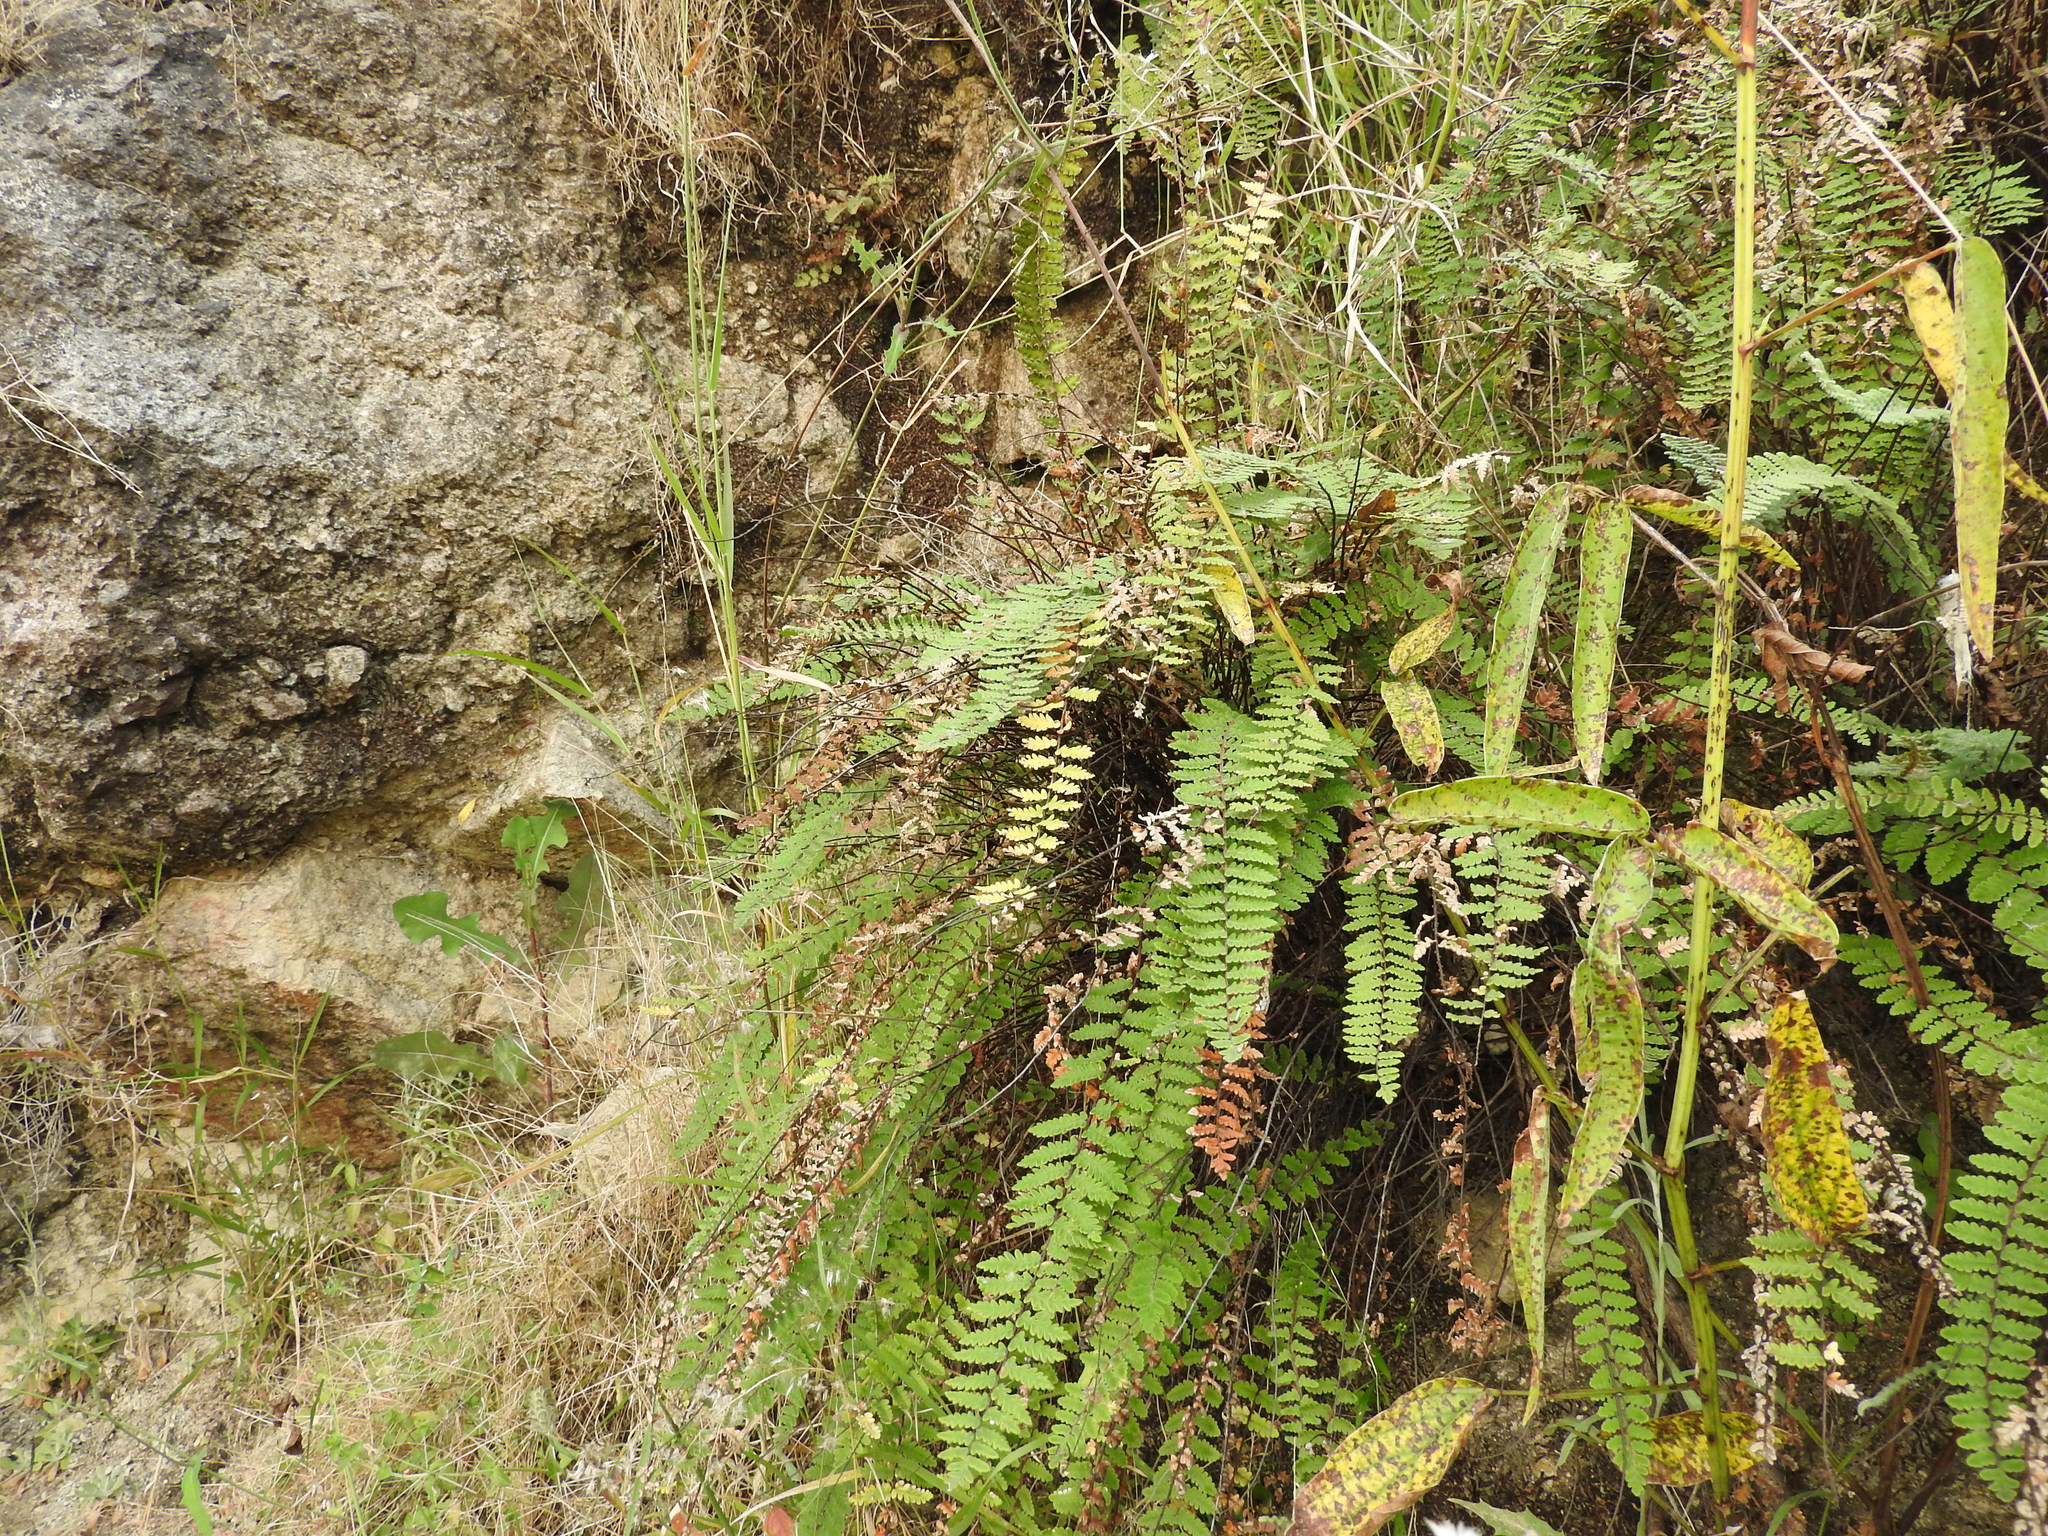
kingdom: Plantae
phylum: Tracheophyta
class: Polypodiopsida
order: Polypodiales
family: Pteridaceae
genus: Myriopteris
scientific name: Myriopteris aurea
